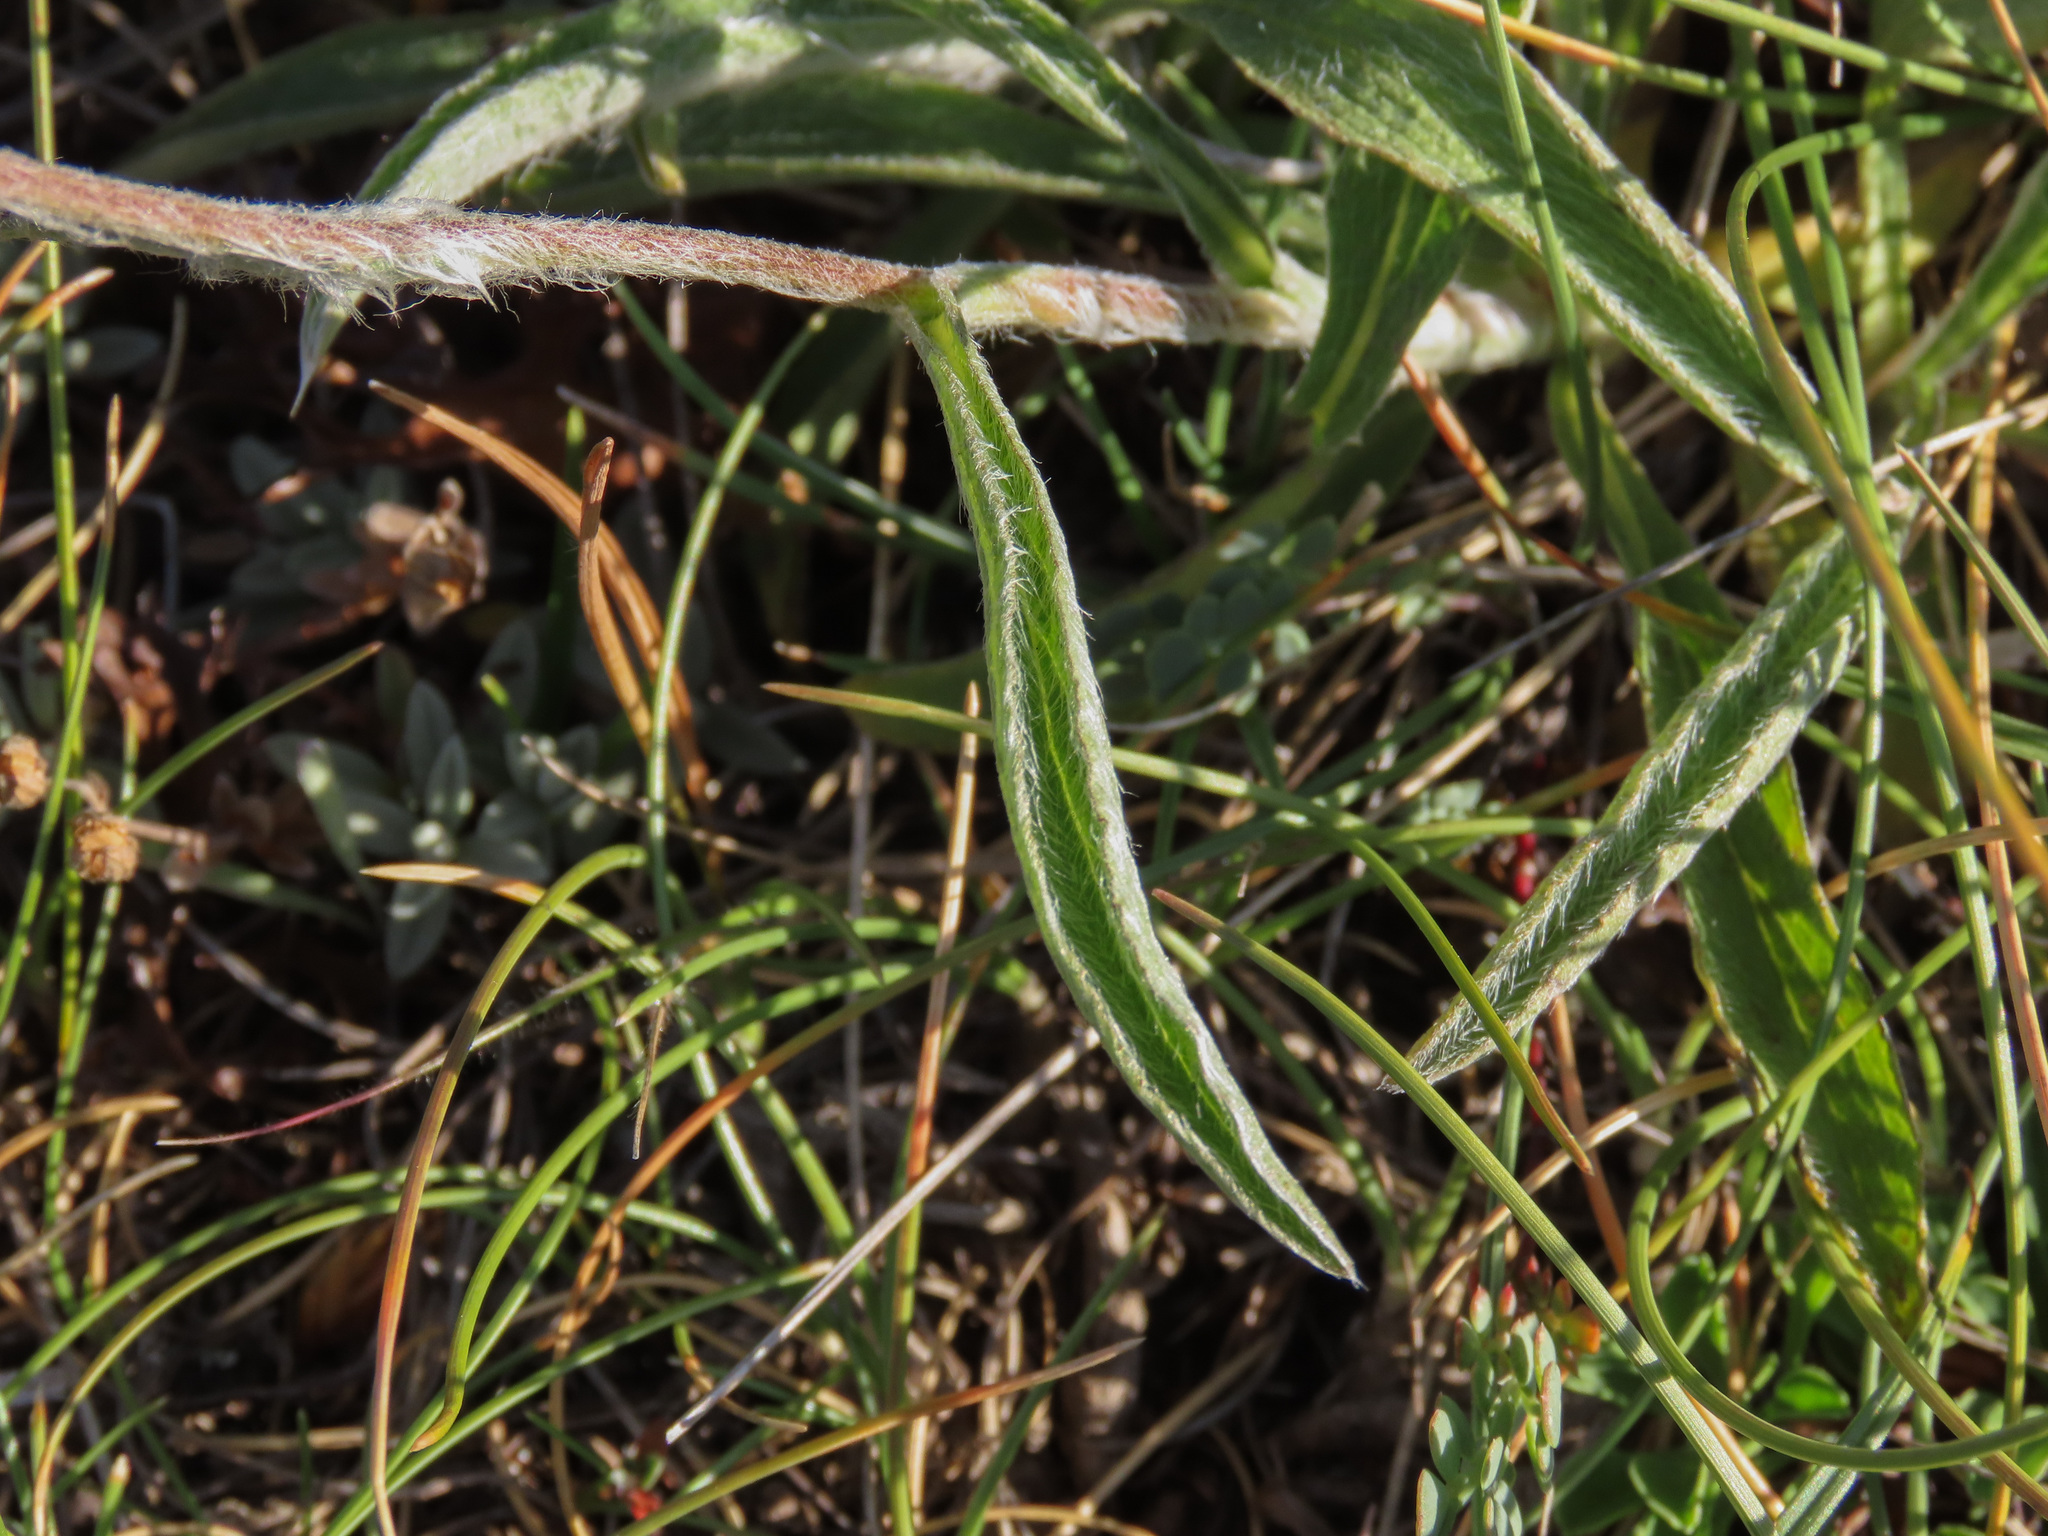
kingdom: Plantae
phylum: Tracheophyta
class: Magnoliopsida
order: Asterales
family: Asteraceae
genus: Pentanema
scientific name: Pentanema montanum
